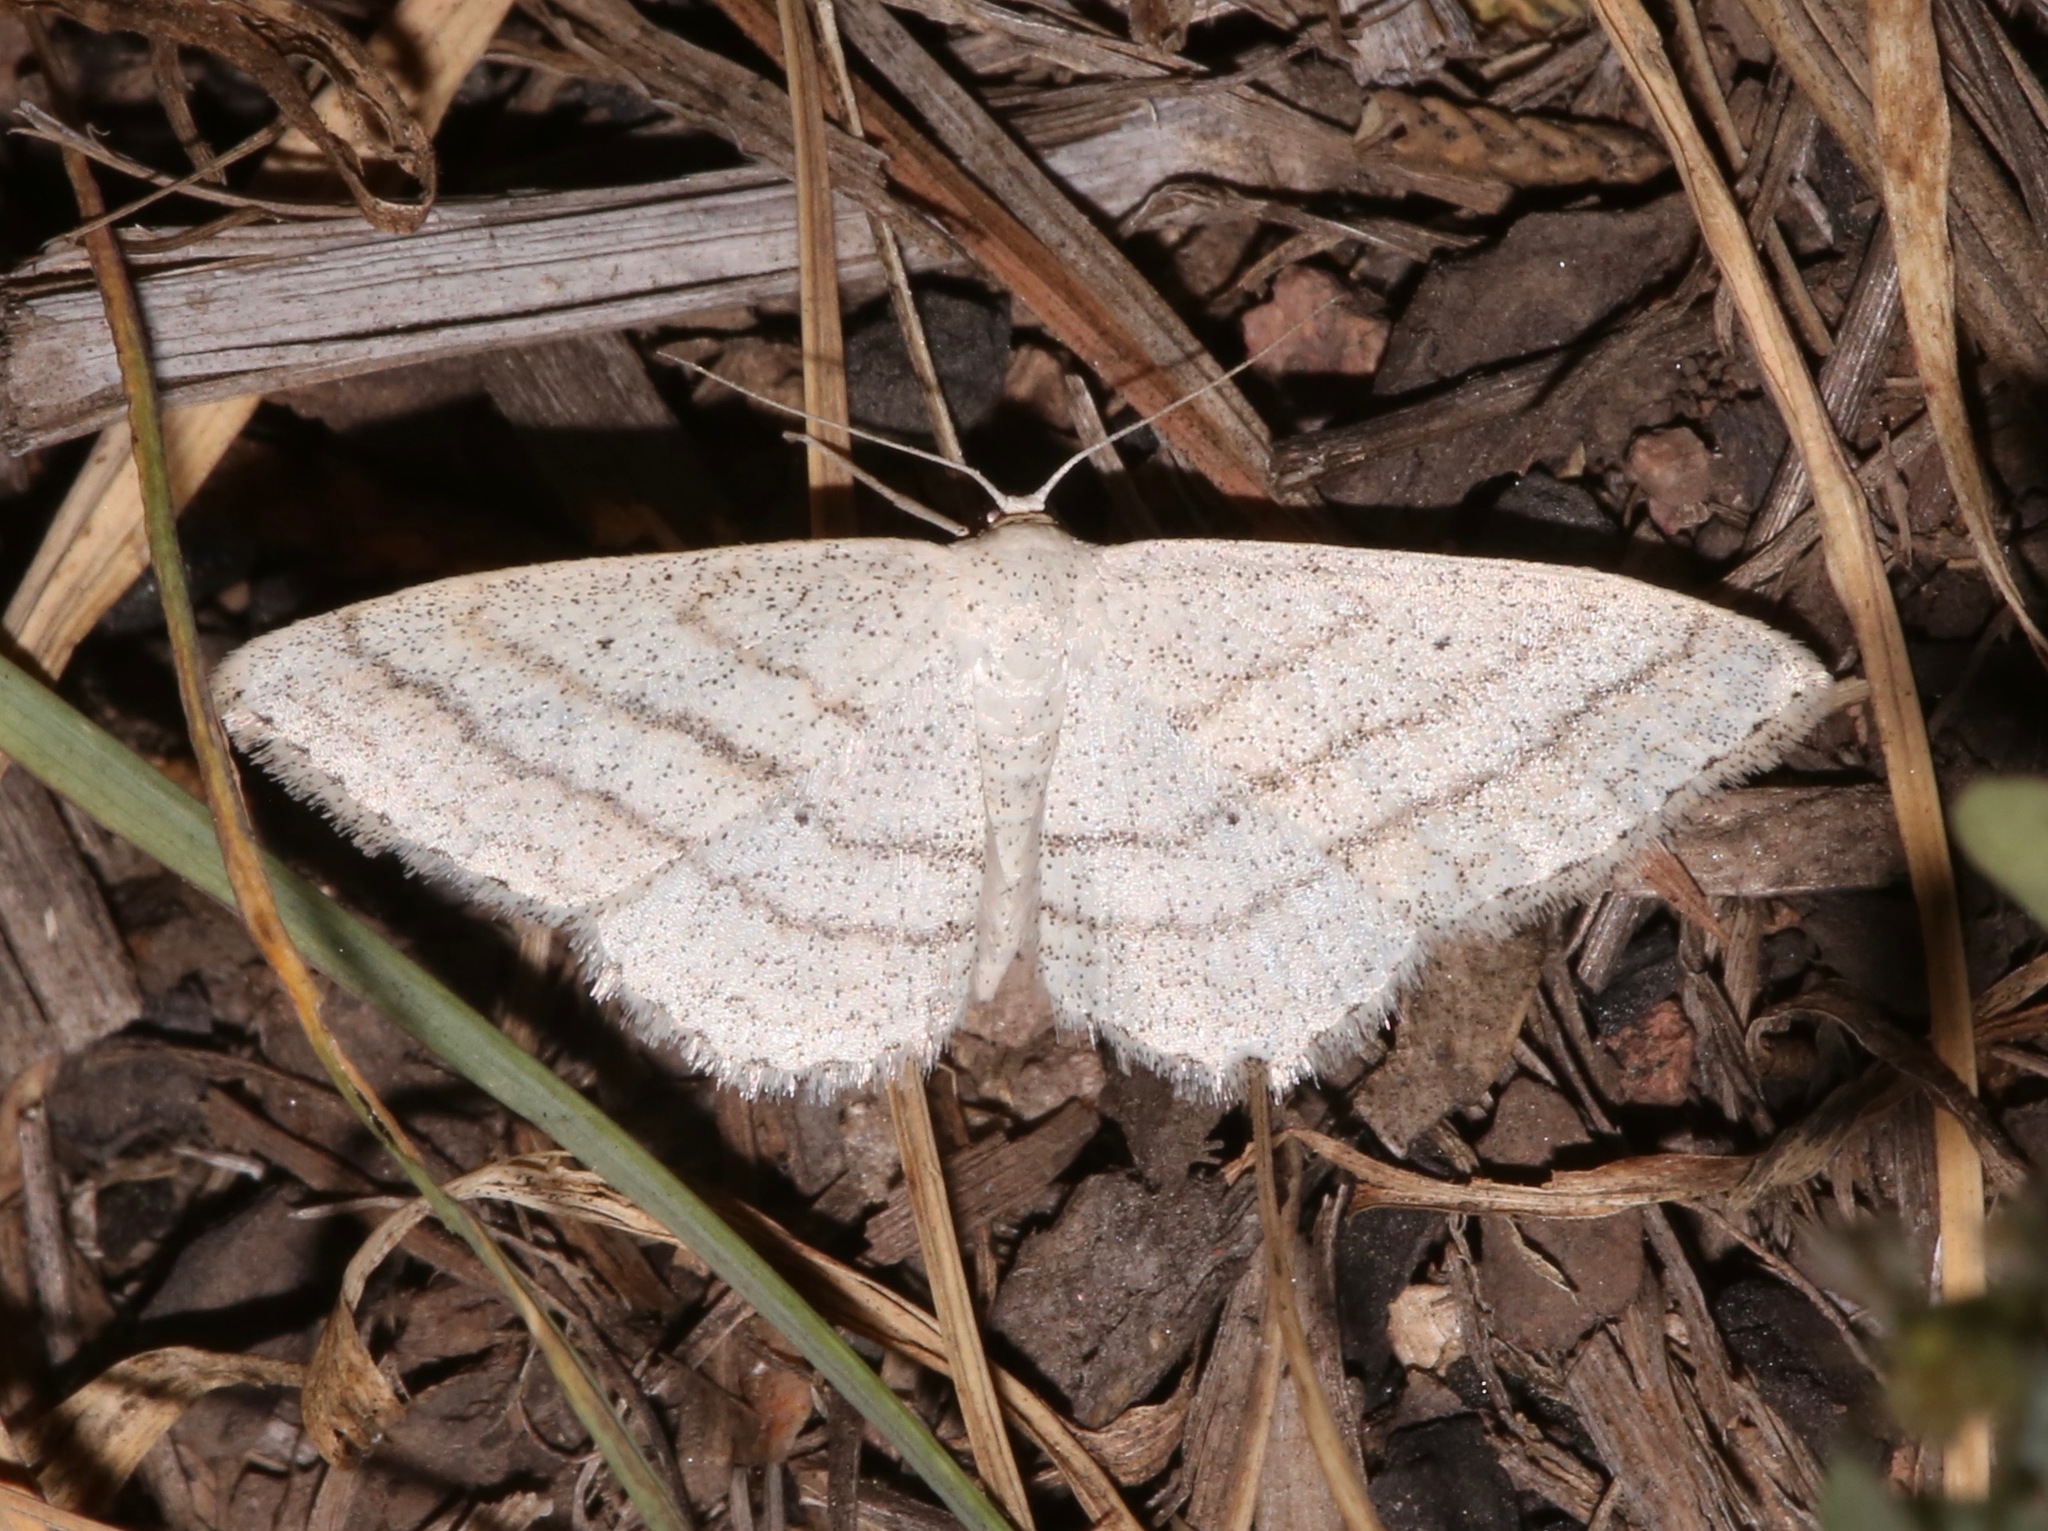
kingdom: Animalia
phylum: Arthropoda
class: Insecta
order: Lepidoptera
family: Geometridae
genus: Scopula
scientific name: Scopula ancellata
